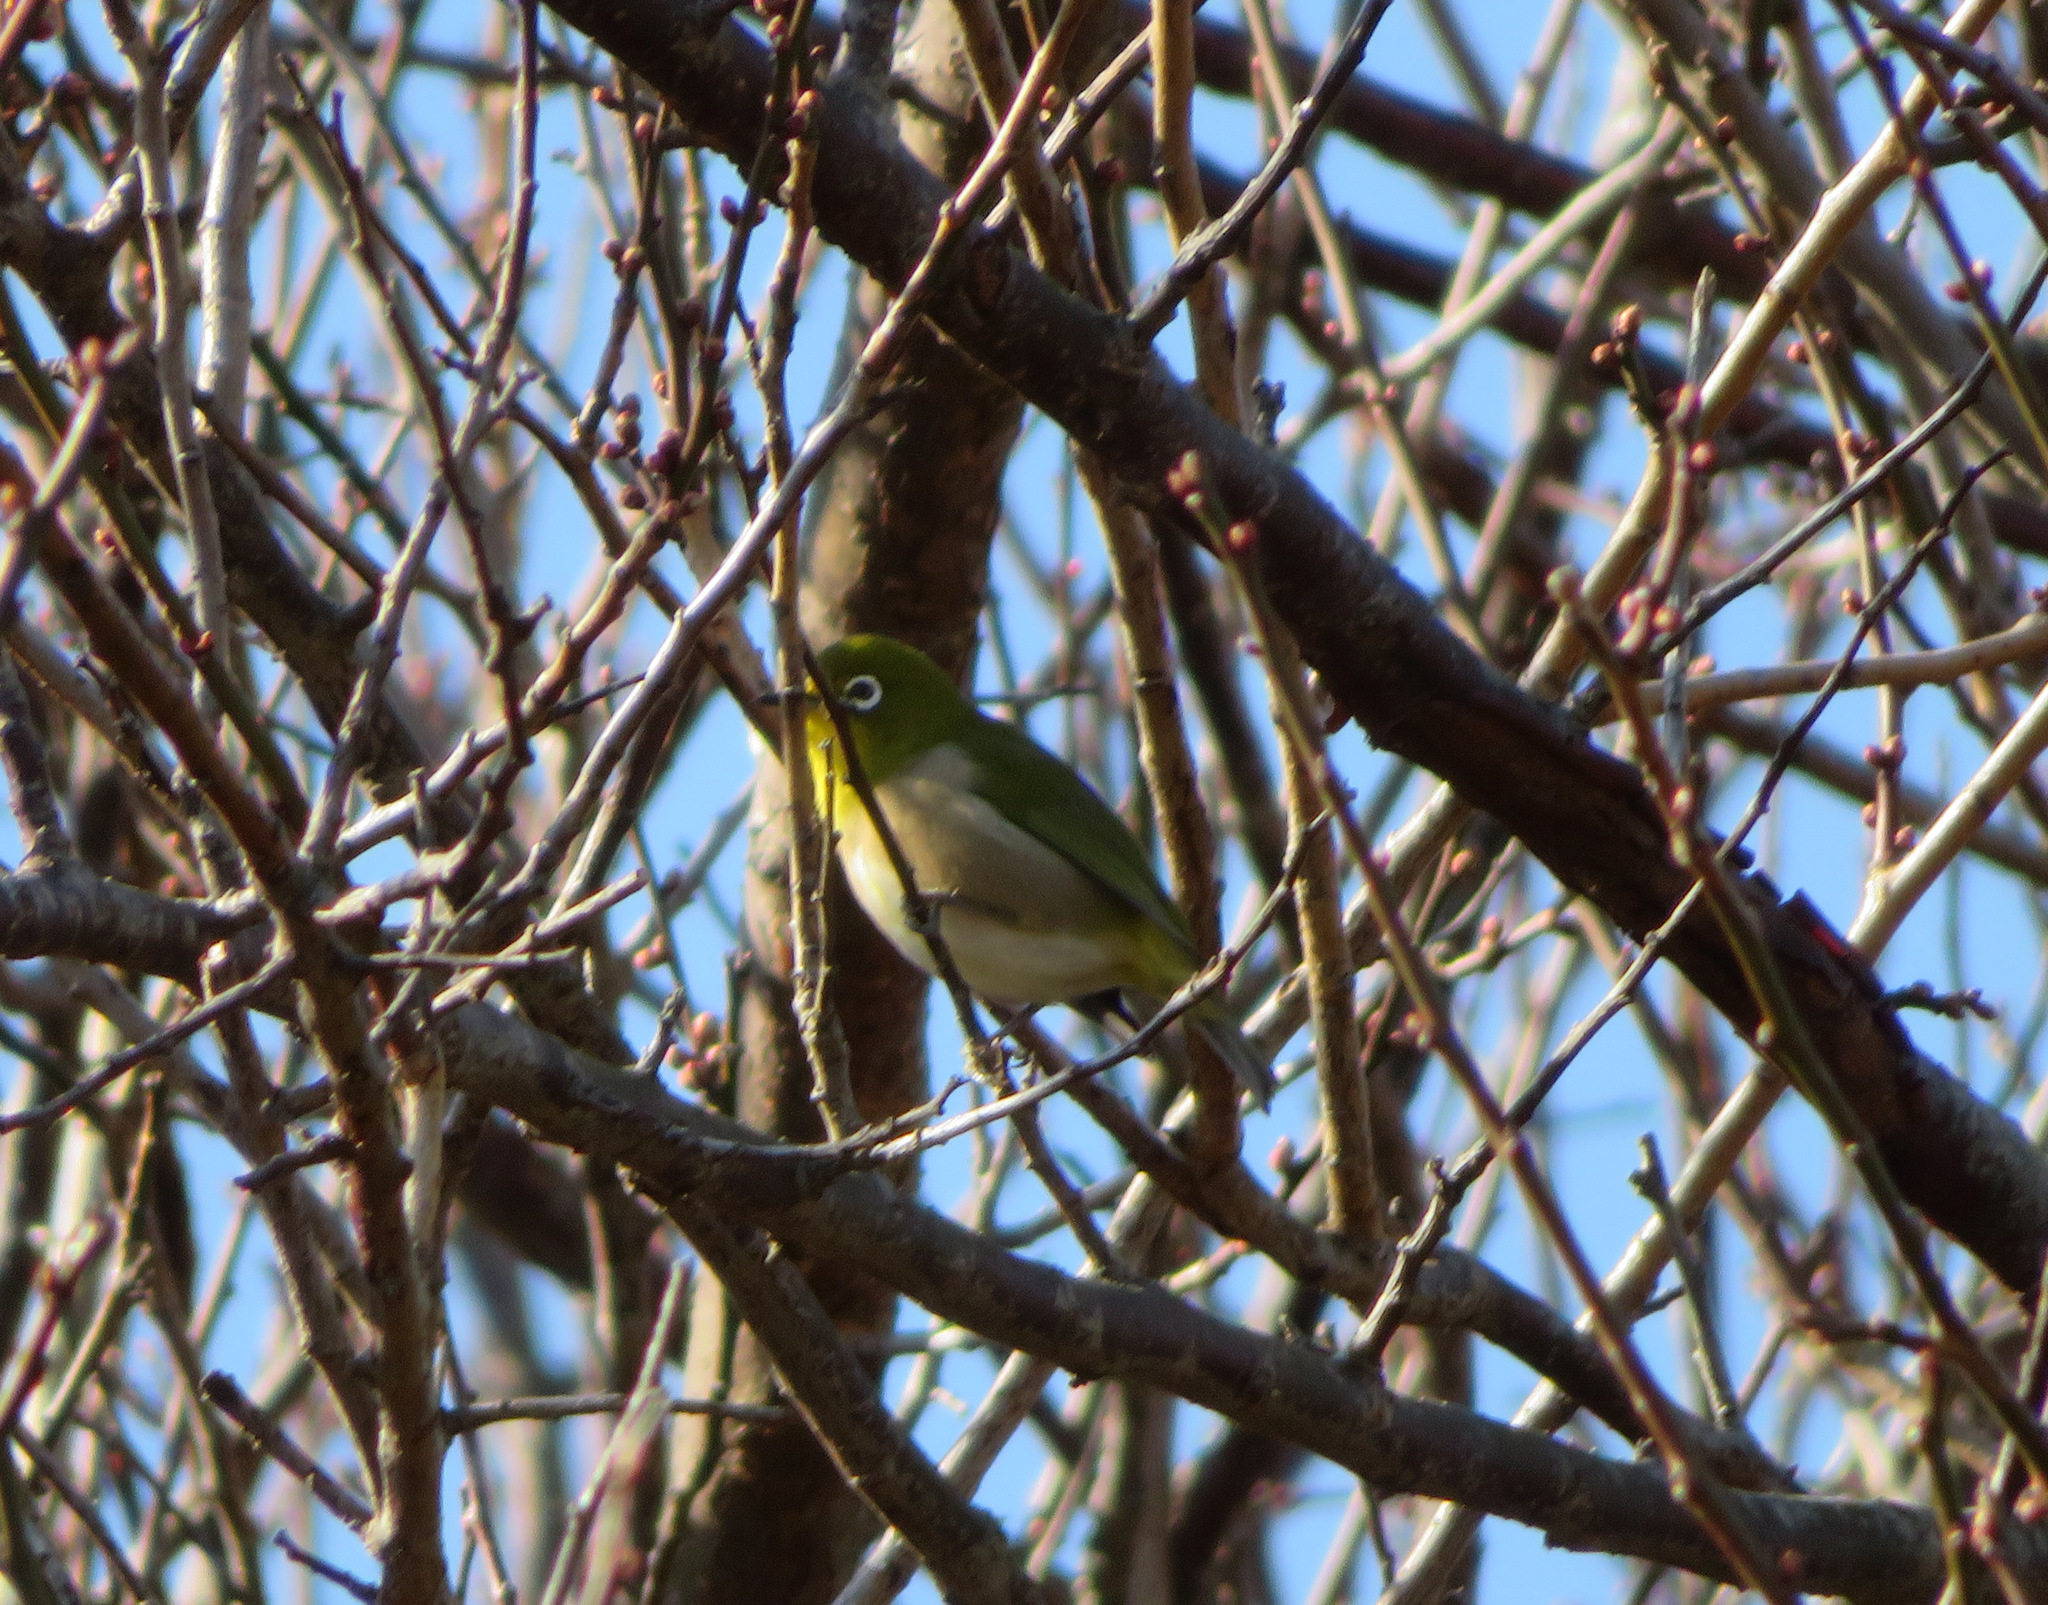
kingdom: Animalia
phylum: Chordata
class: Aves
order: Passeriformes
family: Zosteropidae
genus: Zosterops
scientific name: Zosterops japonicus
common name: Japanese white-eye
